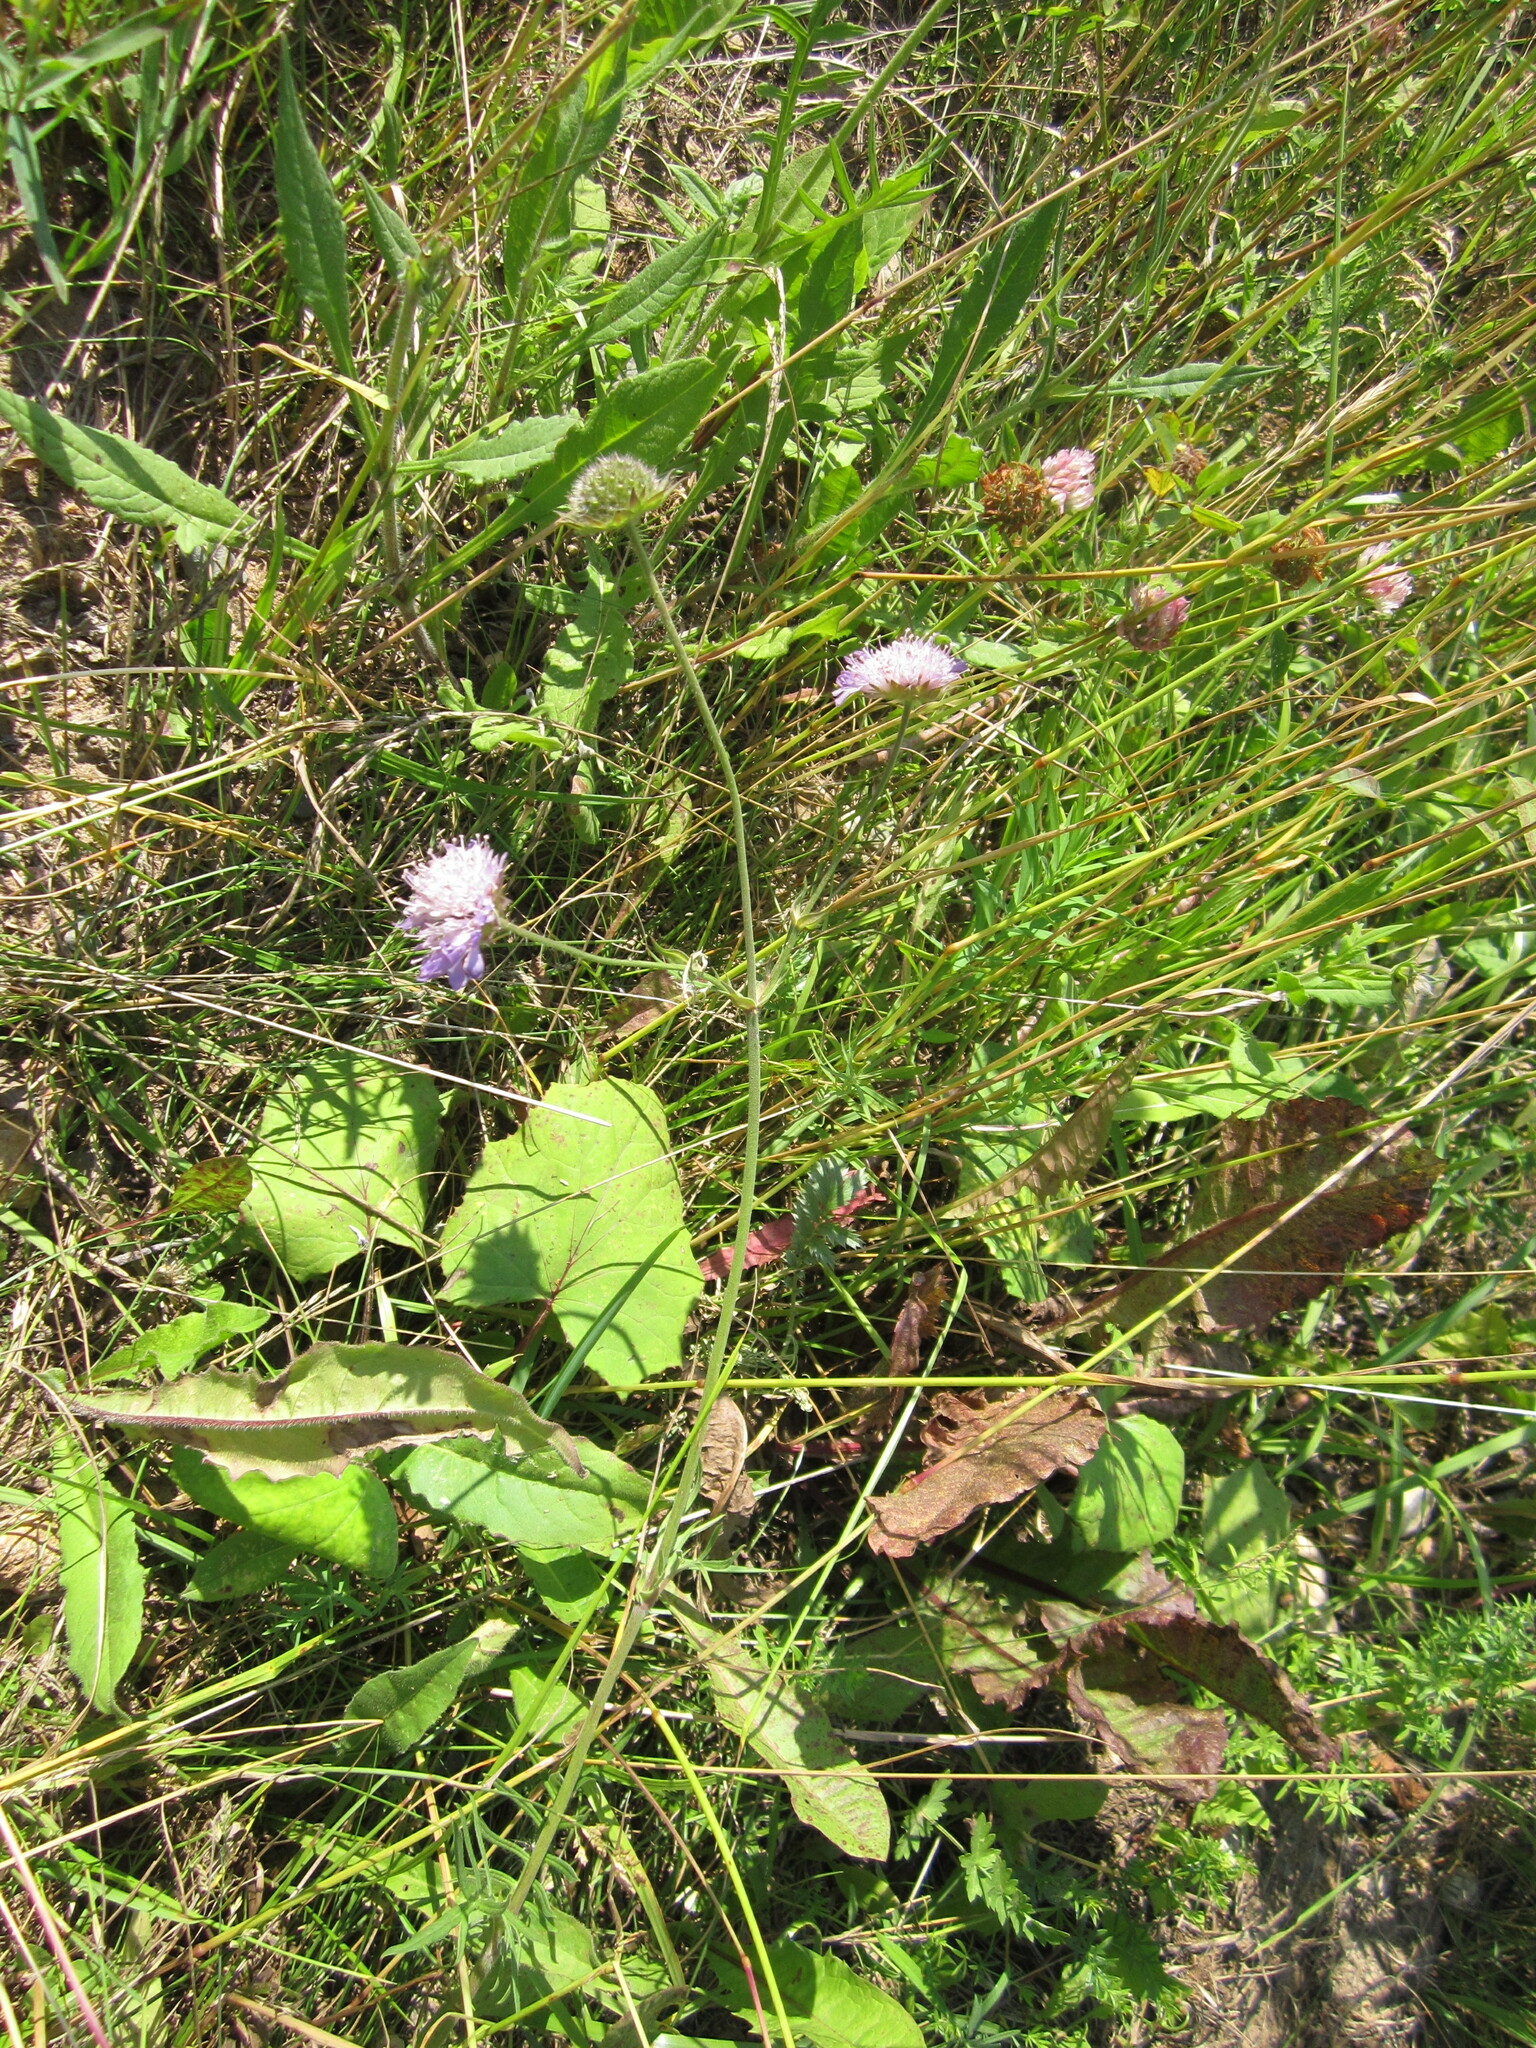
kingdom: Plantae
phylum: Tracheophyta
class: Magnoliopsida
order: Dipsacales
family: Caprifoliaceae
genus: Knautia
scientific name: Knautia arvensis
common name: Field scabiosa
